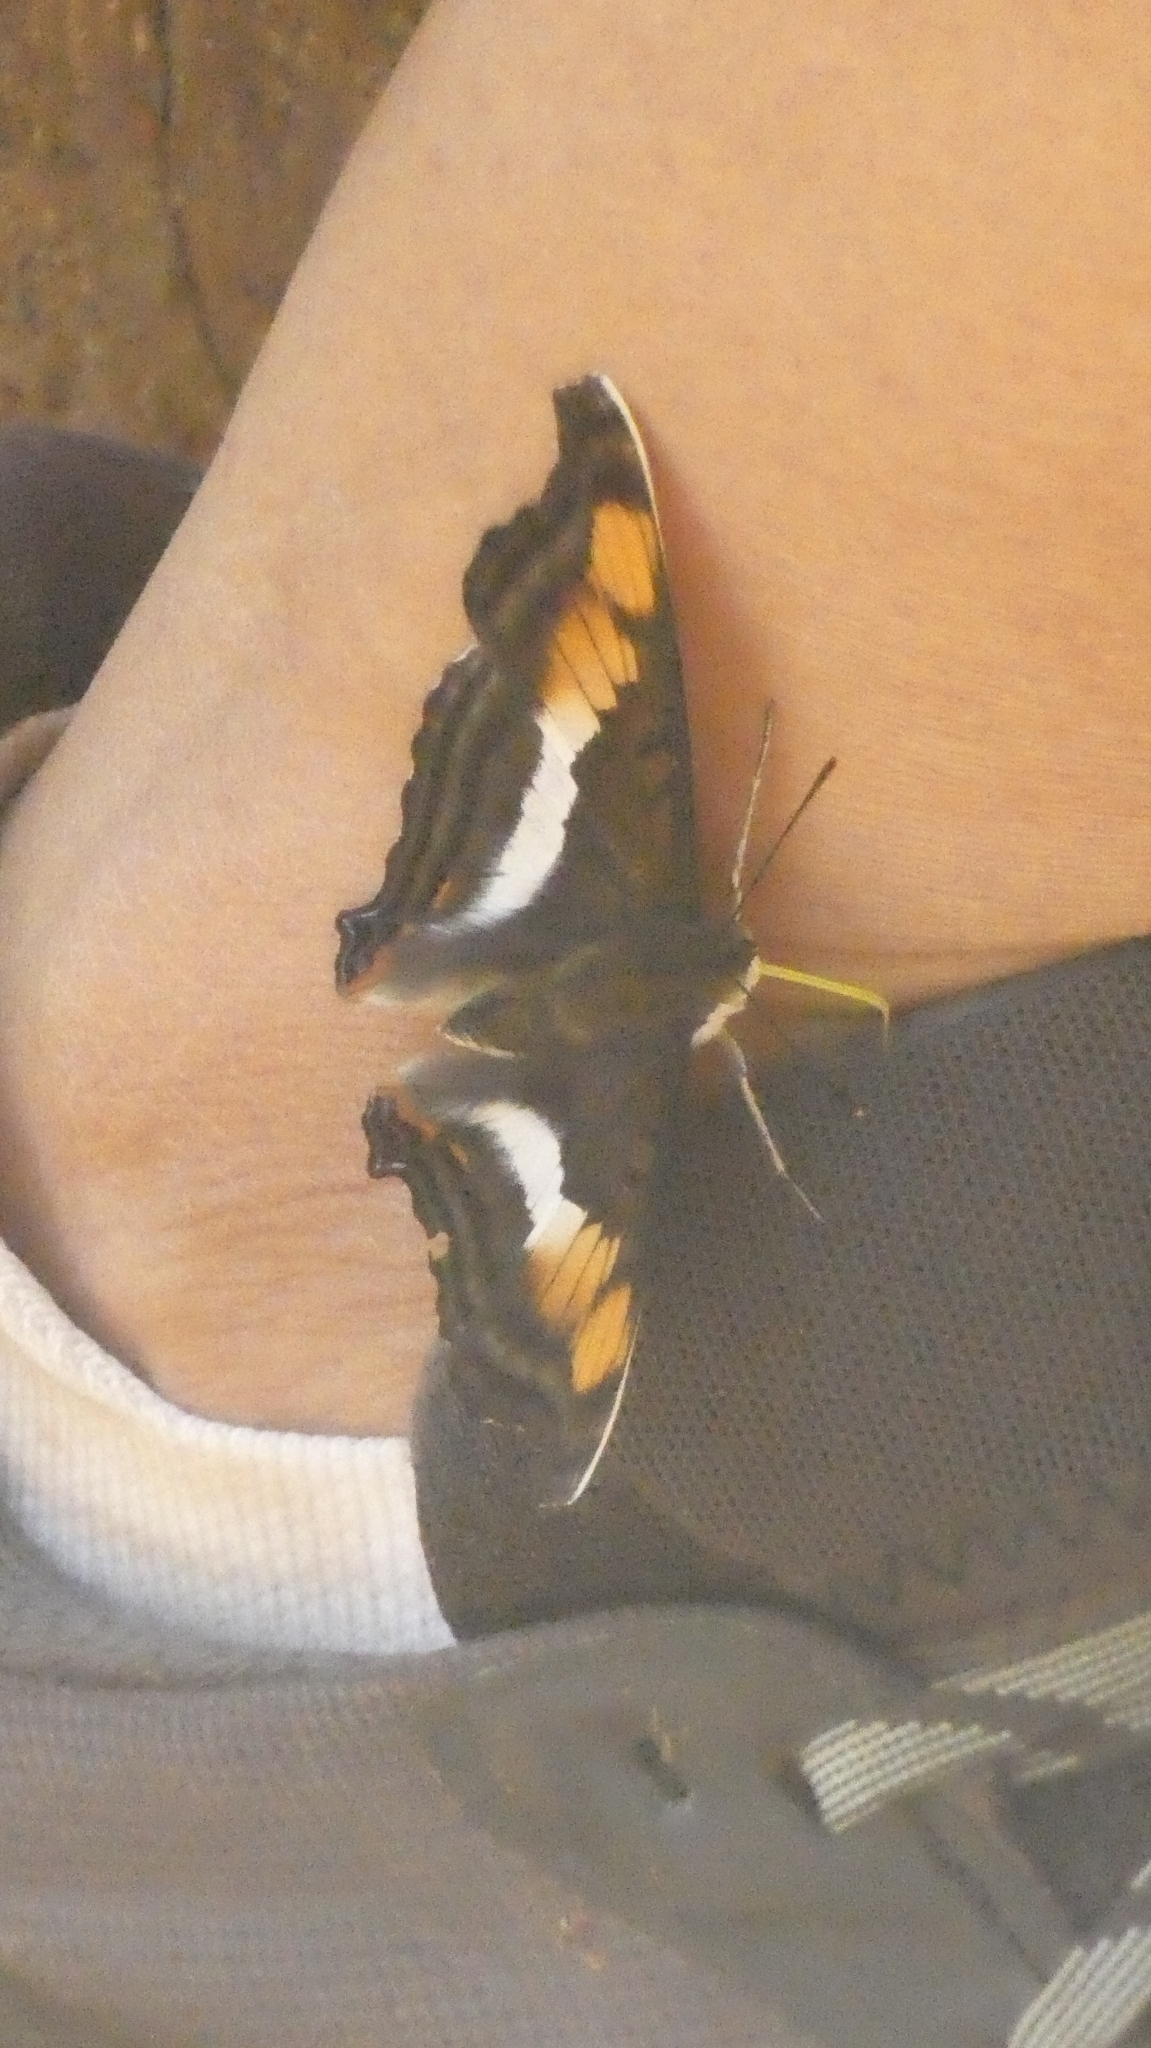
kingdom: Animalia
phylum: Arthropoda
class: Insecta
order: Lepidoptera
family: Nymphalidae
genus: Doxocopa
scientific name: Doxocopa linda
